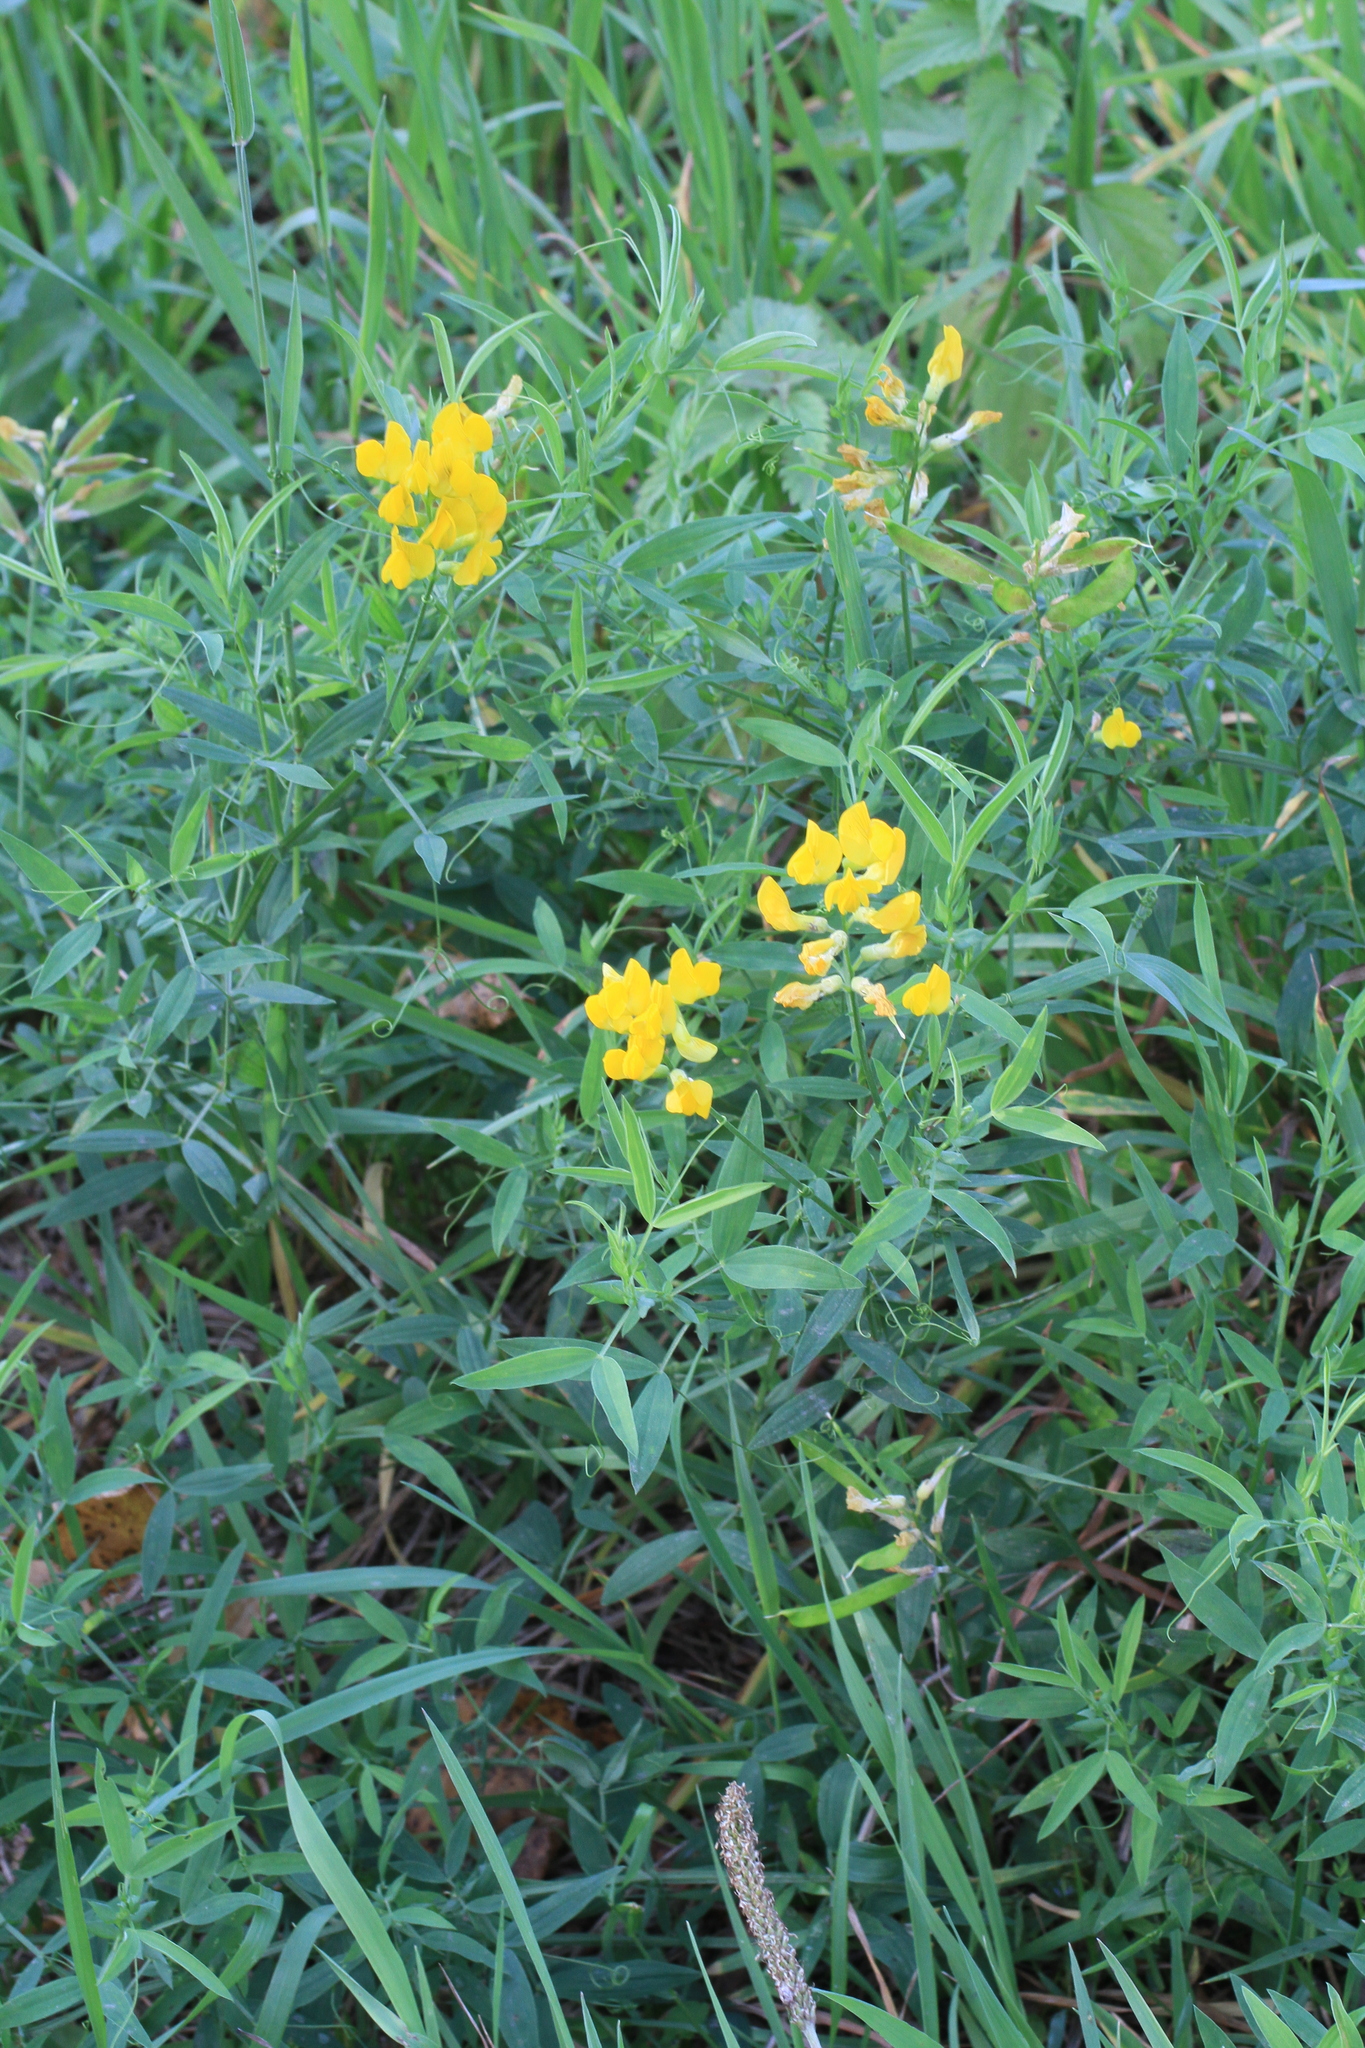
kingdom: Plantae
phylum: Tracheophyta
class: Magnoliopsida
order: Fabales
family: Fabaceae
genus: Lathyrus
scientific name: Lathyrus pratensis
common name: Meadow vetchling
